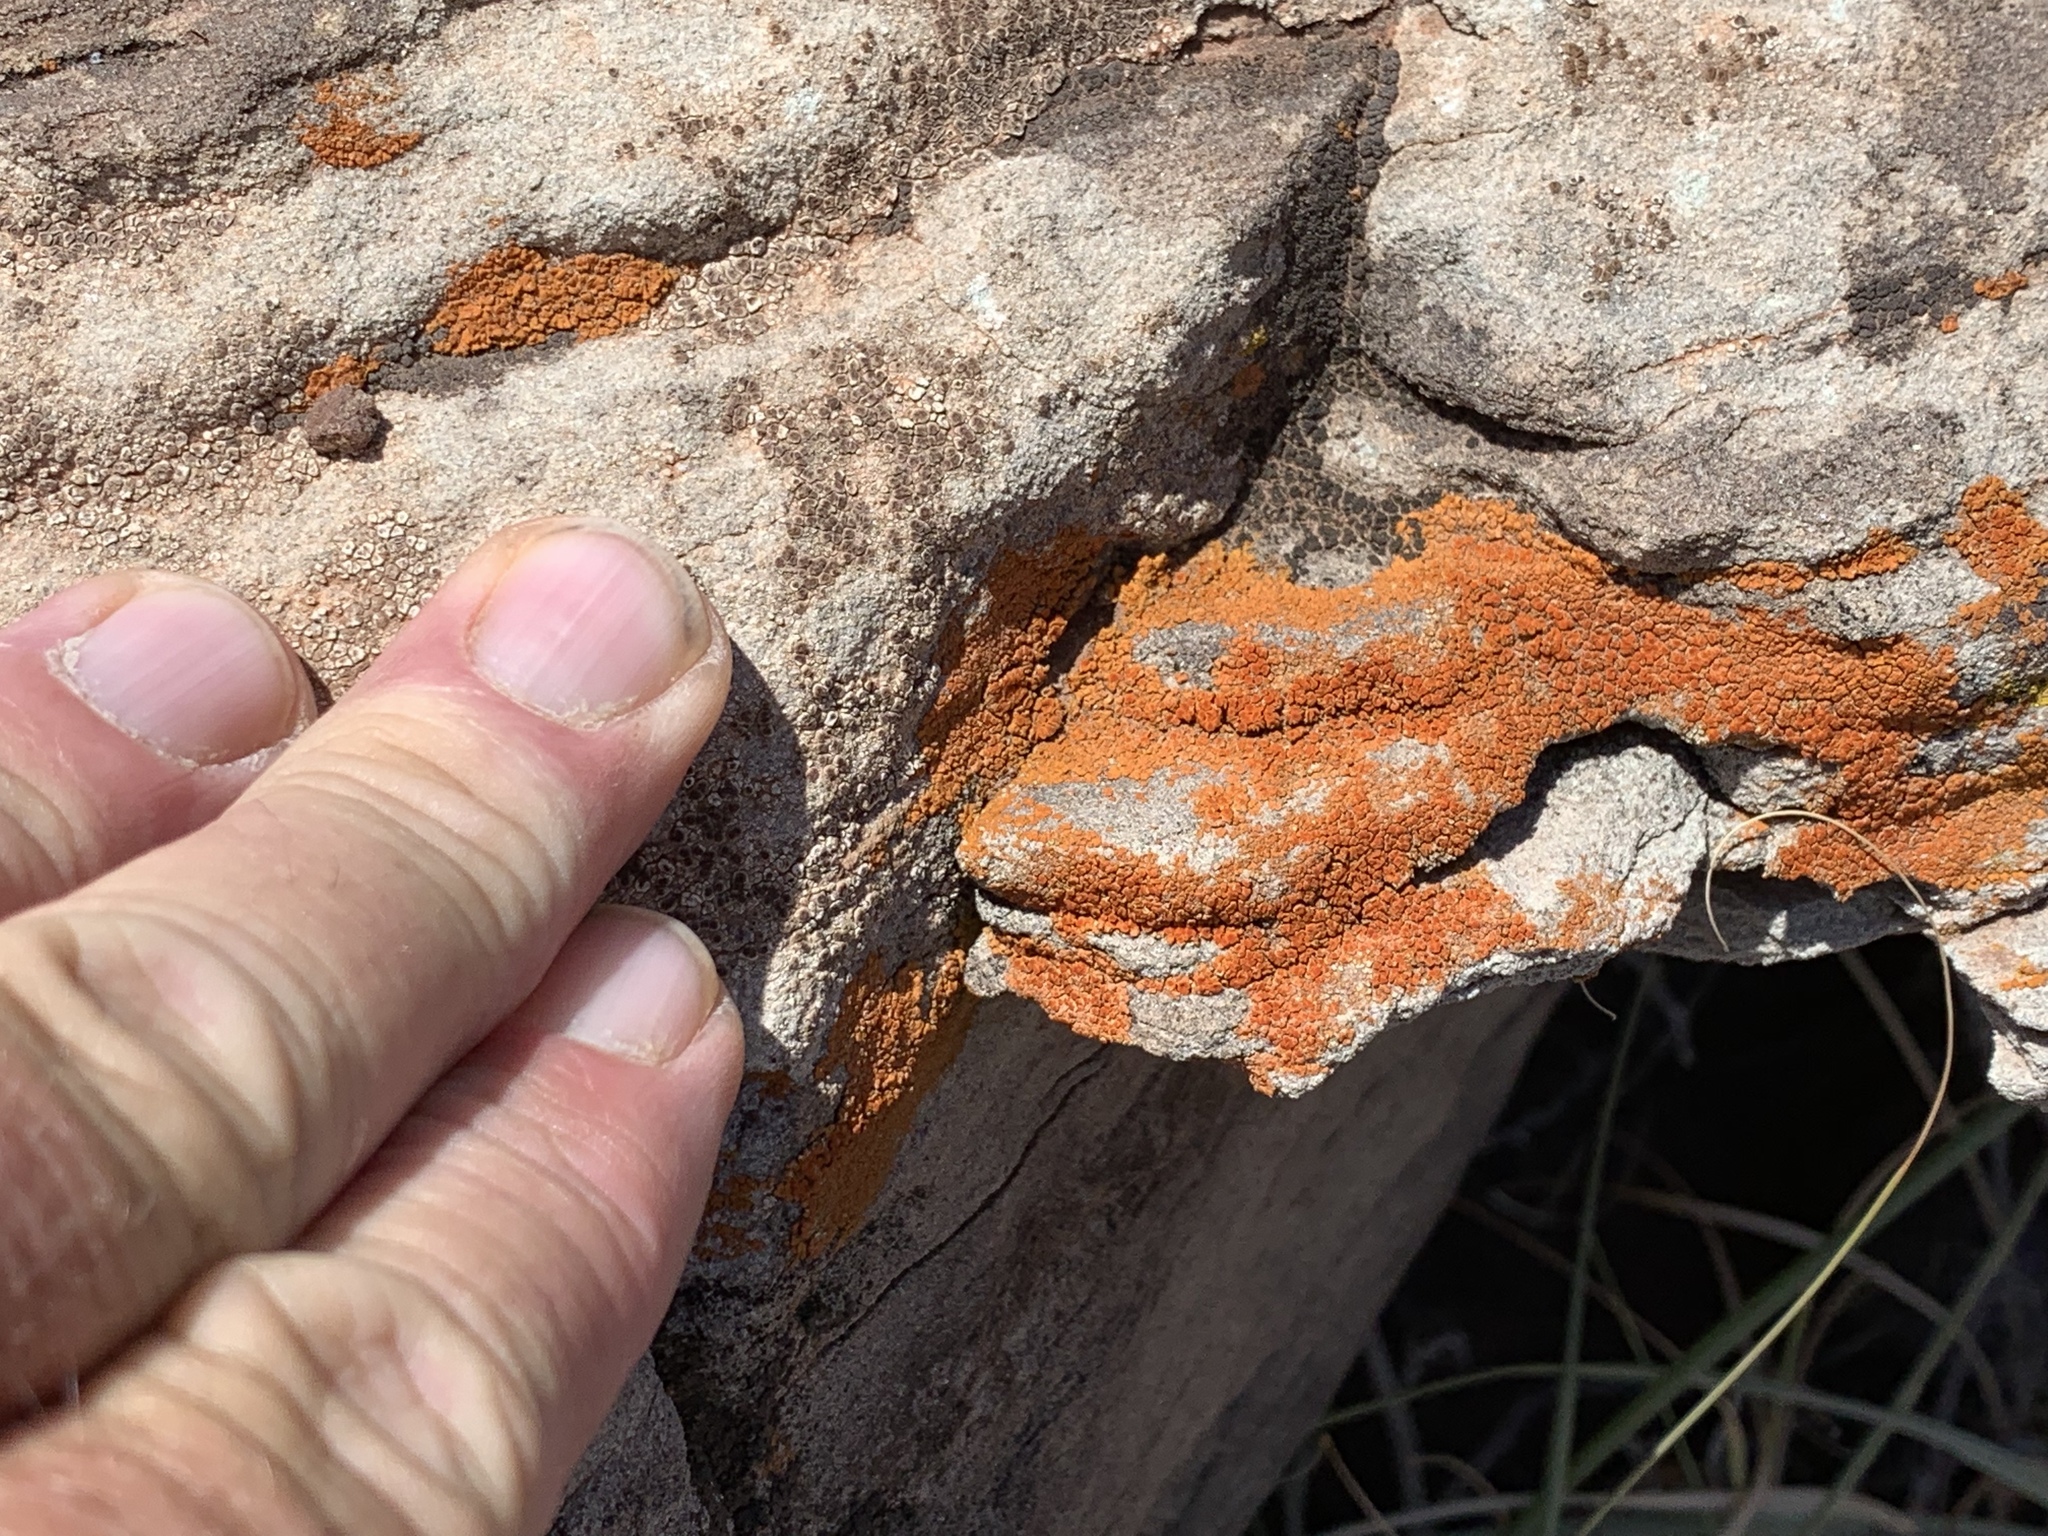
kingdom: Fungi
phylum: Ascomycota
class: Lecanoromycetes
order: Teloschistales
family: Teloschistaceae
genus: Squamulea
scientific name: Squamulea subsoluta
